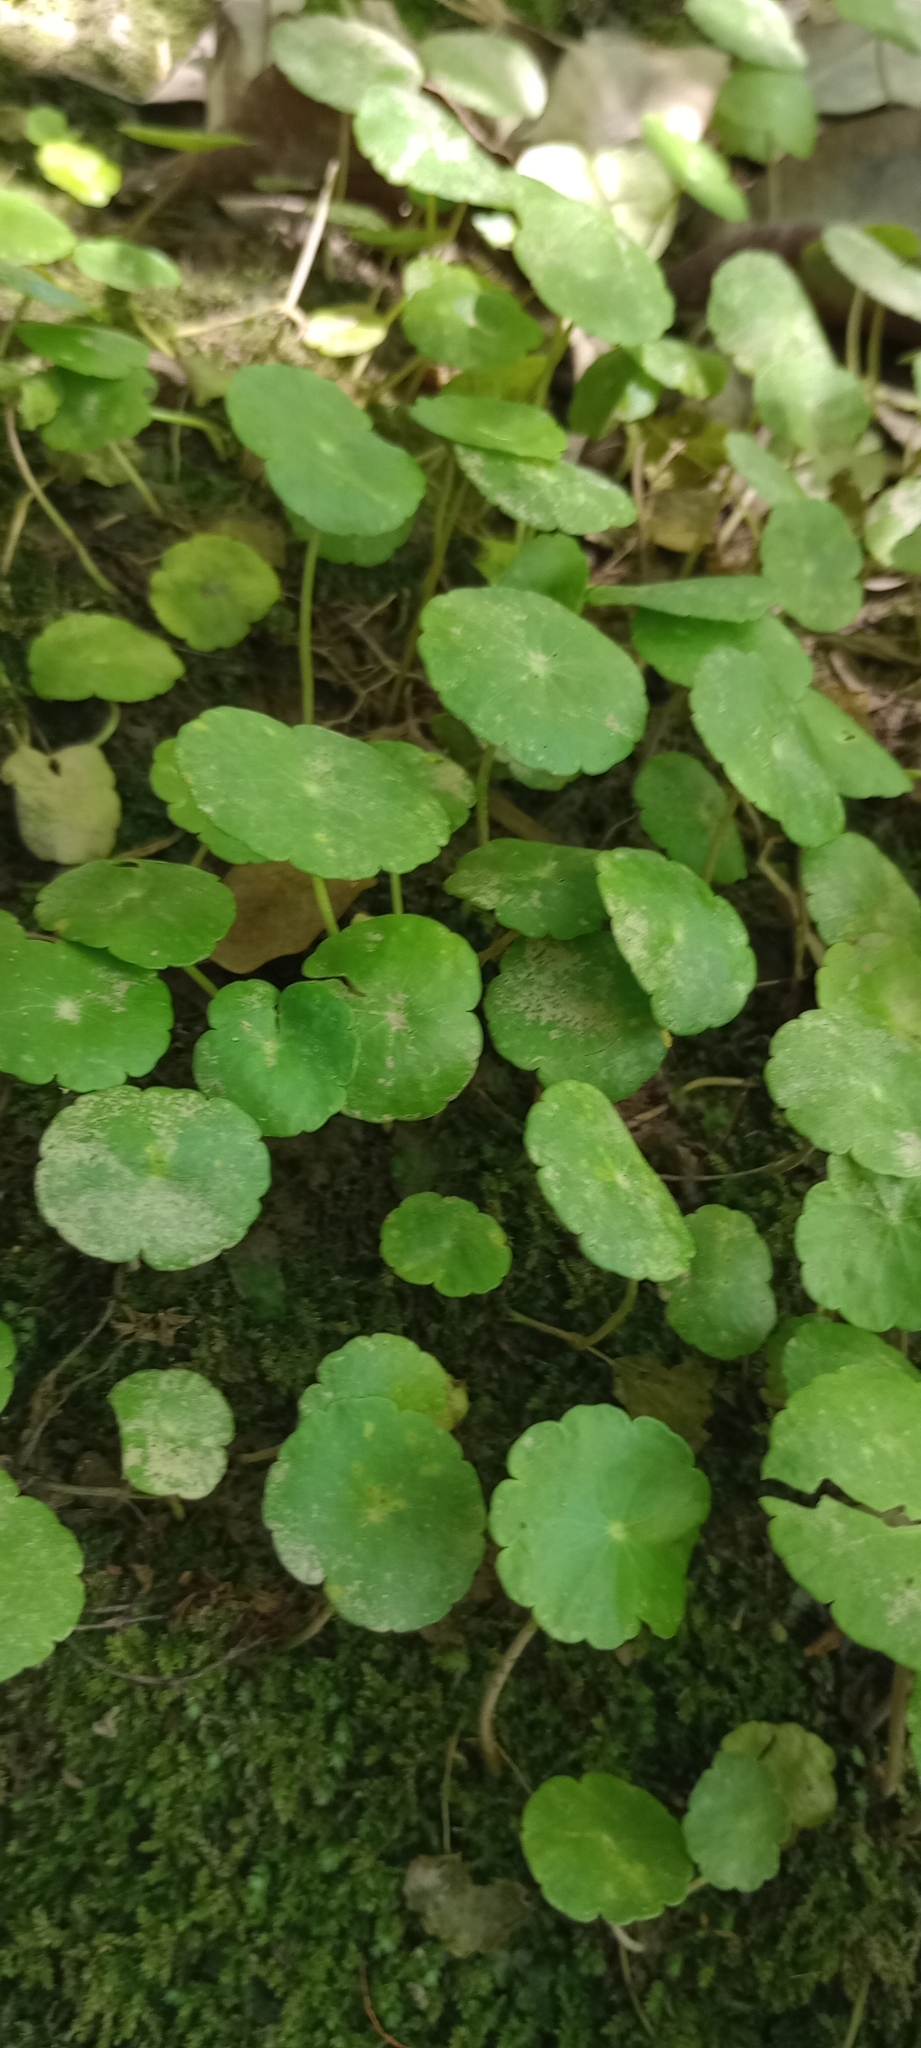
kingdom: Plantae
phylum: Tracheophyta
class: Magnoliopsida
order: Apiales
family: Araliaceae
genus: Hydrocotyle
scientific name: Hydrocotyle bonariensis
